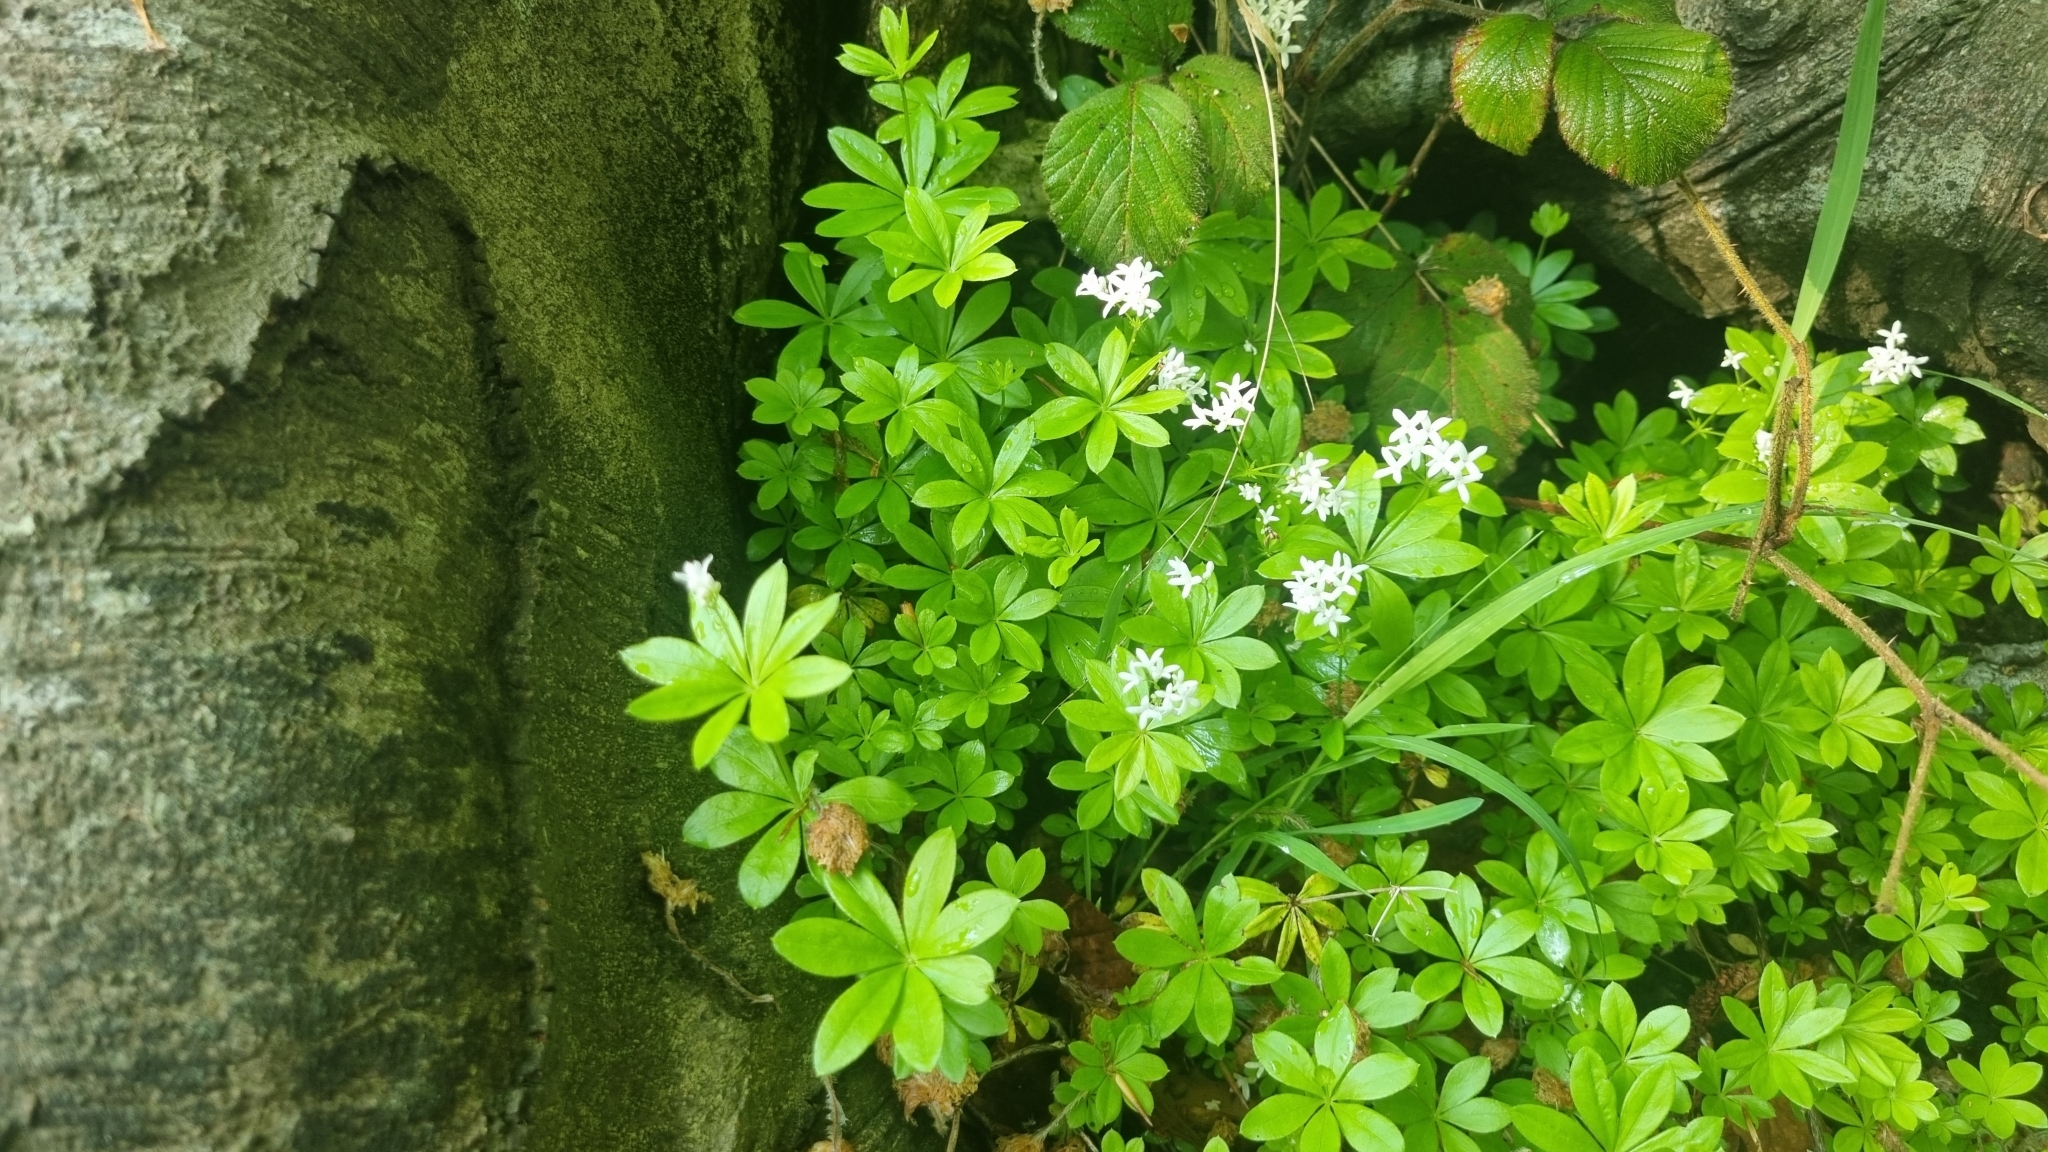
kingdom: Plantae
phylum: Tracheophyta
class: Magnoliopsida
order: Gentianales
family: Rubiaceae
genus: Galium
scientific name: Galium odoratum
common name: Sweet woodruff
